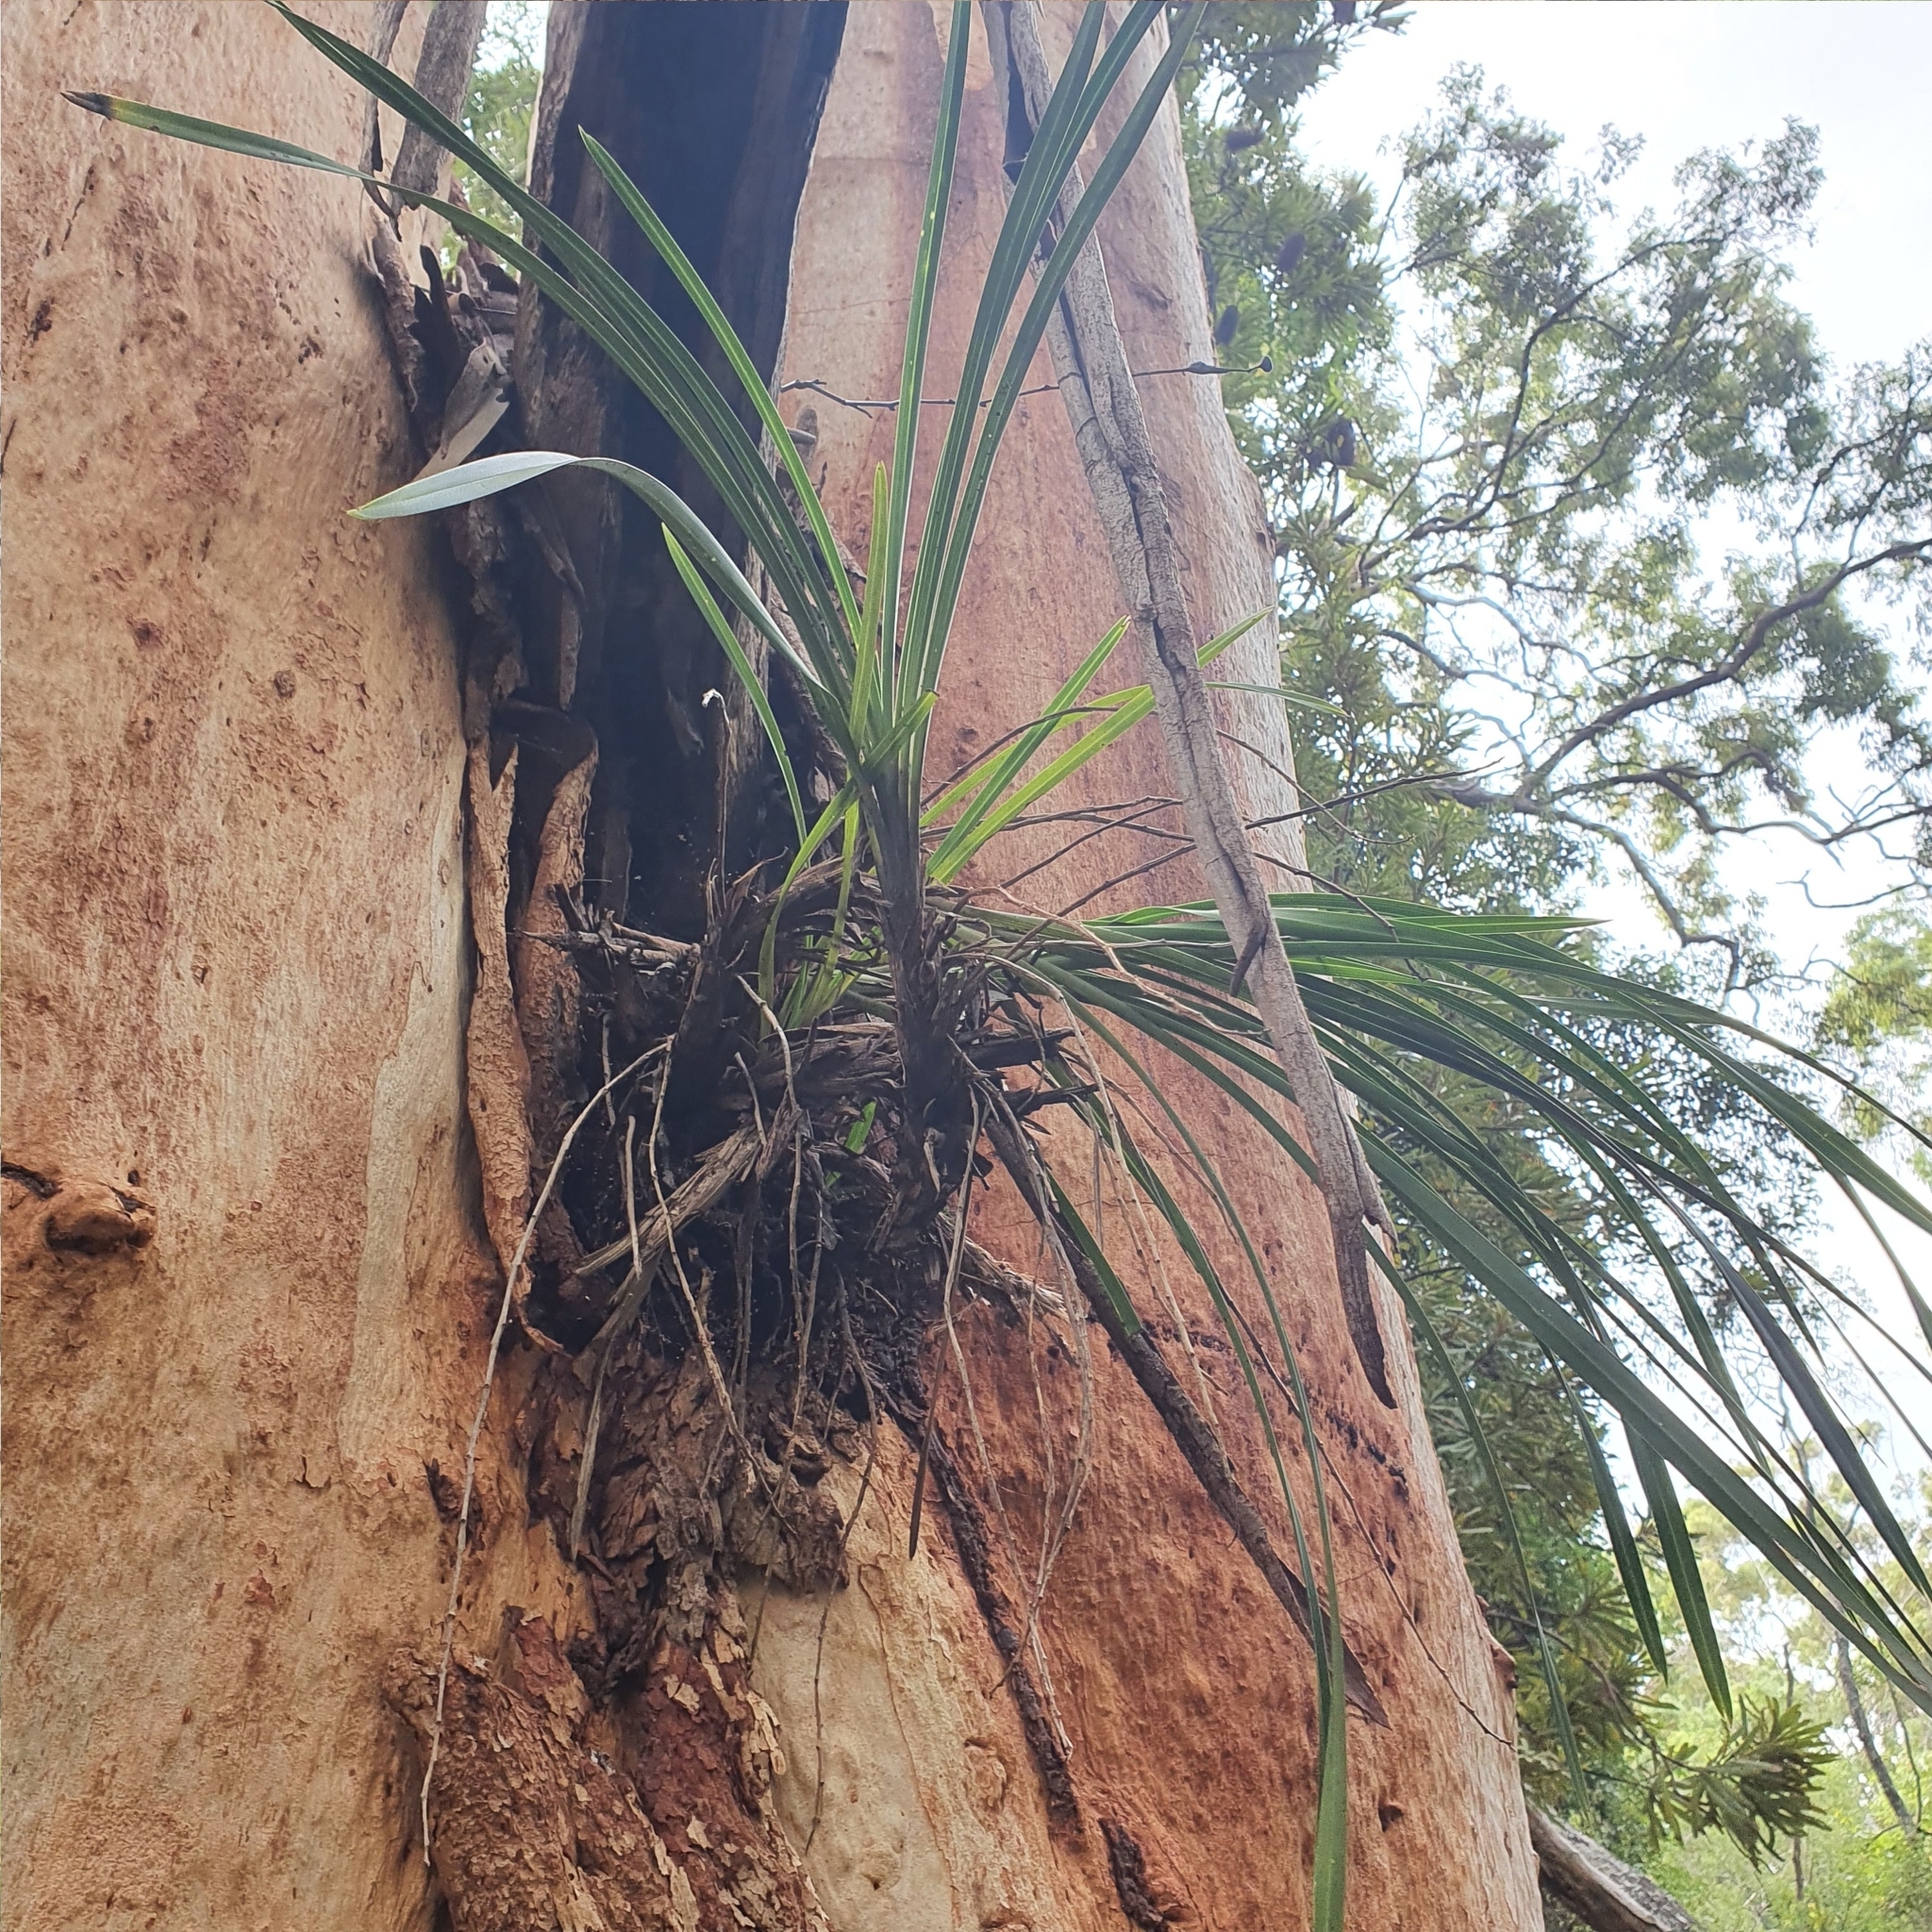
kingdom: Plantae
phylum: Tracheophyta
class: Liliopsida
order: Asparagales
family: Orchidaceae
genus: Cymbidium
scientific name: Cymbidium suave
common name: Snake orchid
